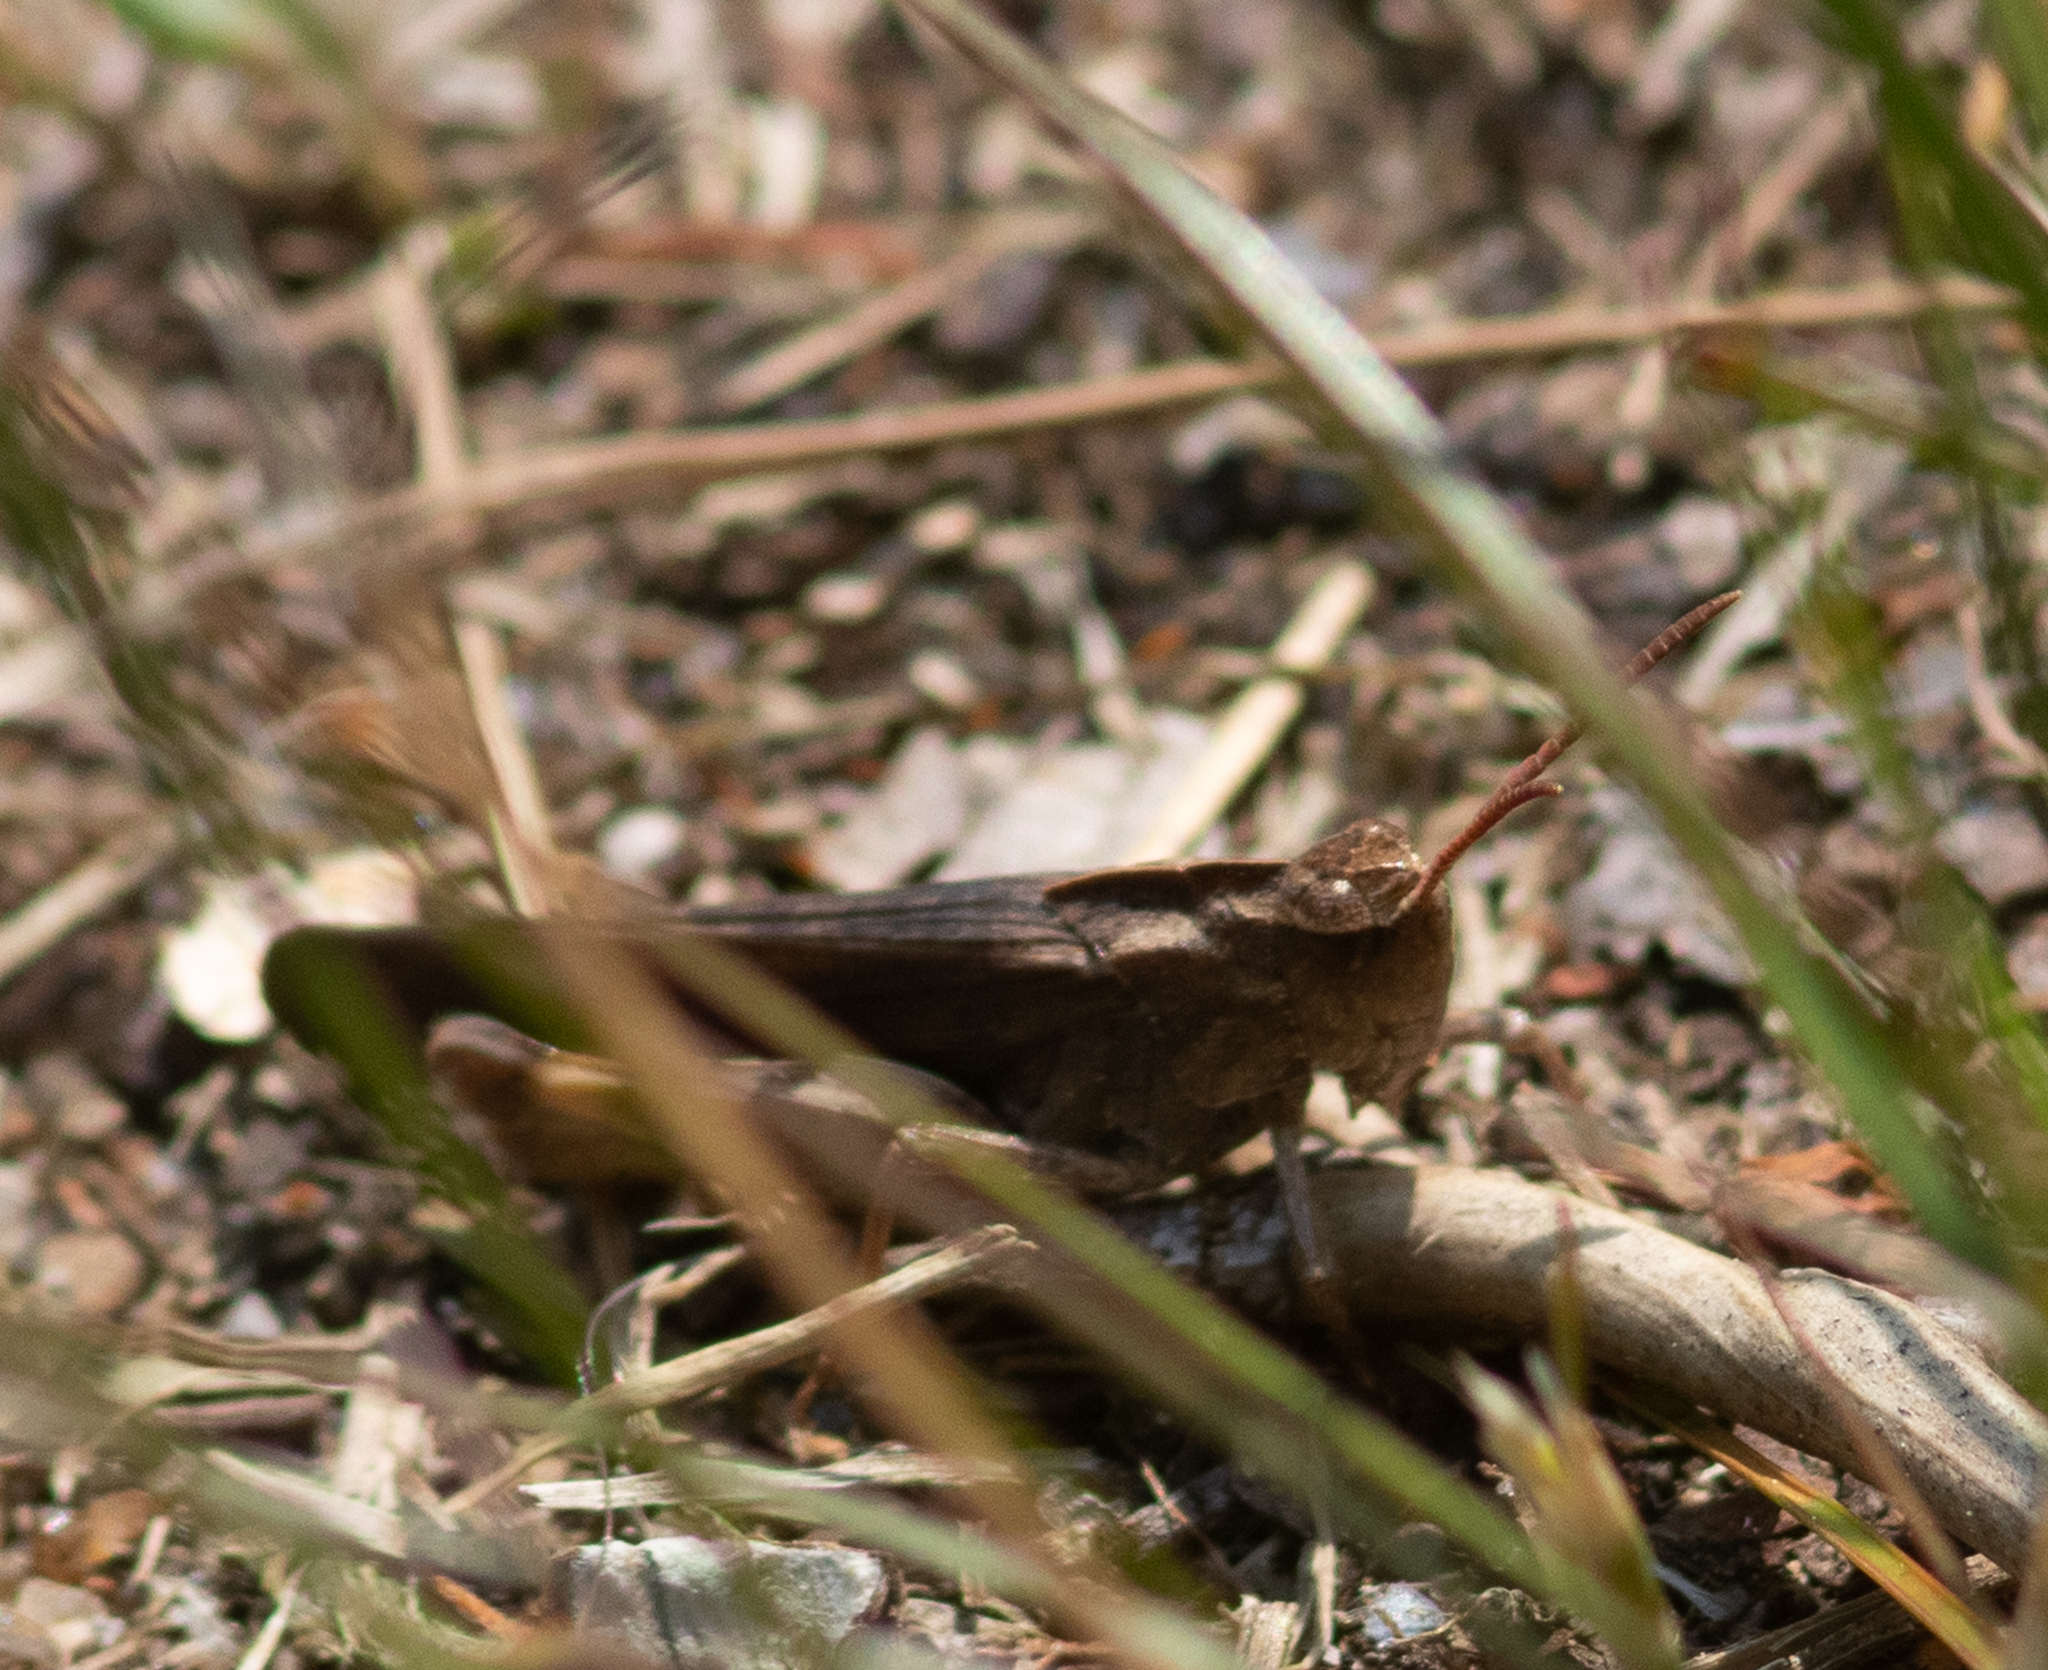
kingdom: Animalia
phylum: Arthropoda
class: Insecta
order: Orthoptera
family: Acrididae
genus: Chortophaga
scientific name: Chortophaga viridifasciata
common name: Green-striped grasshopper
